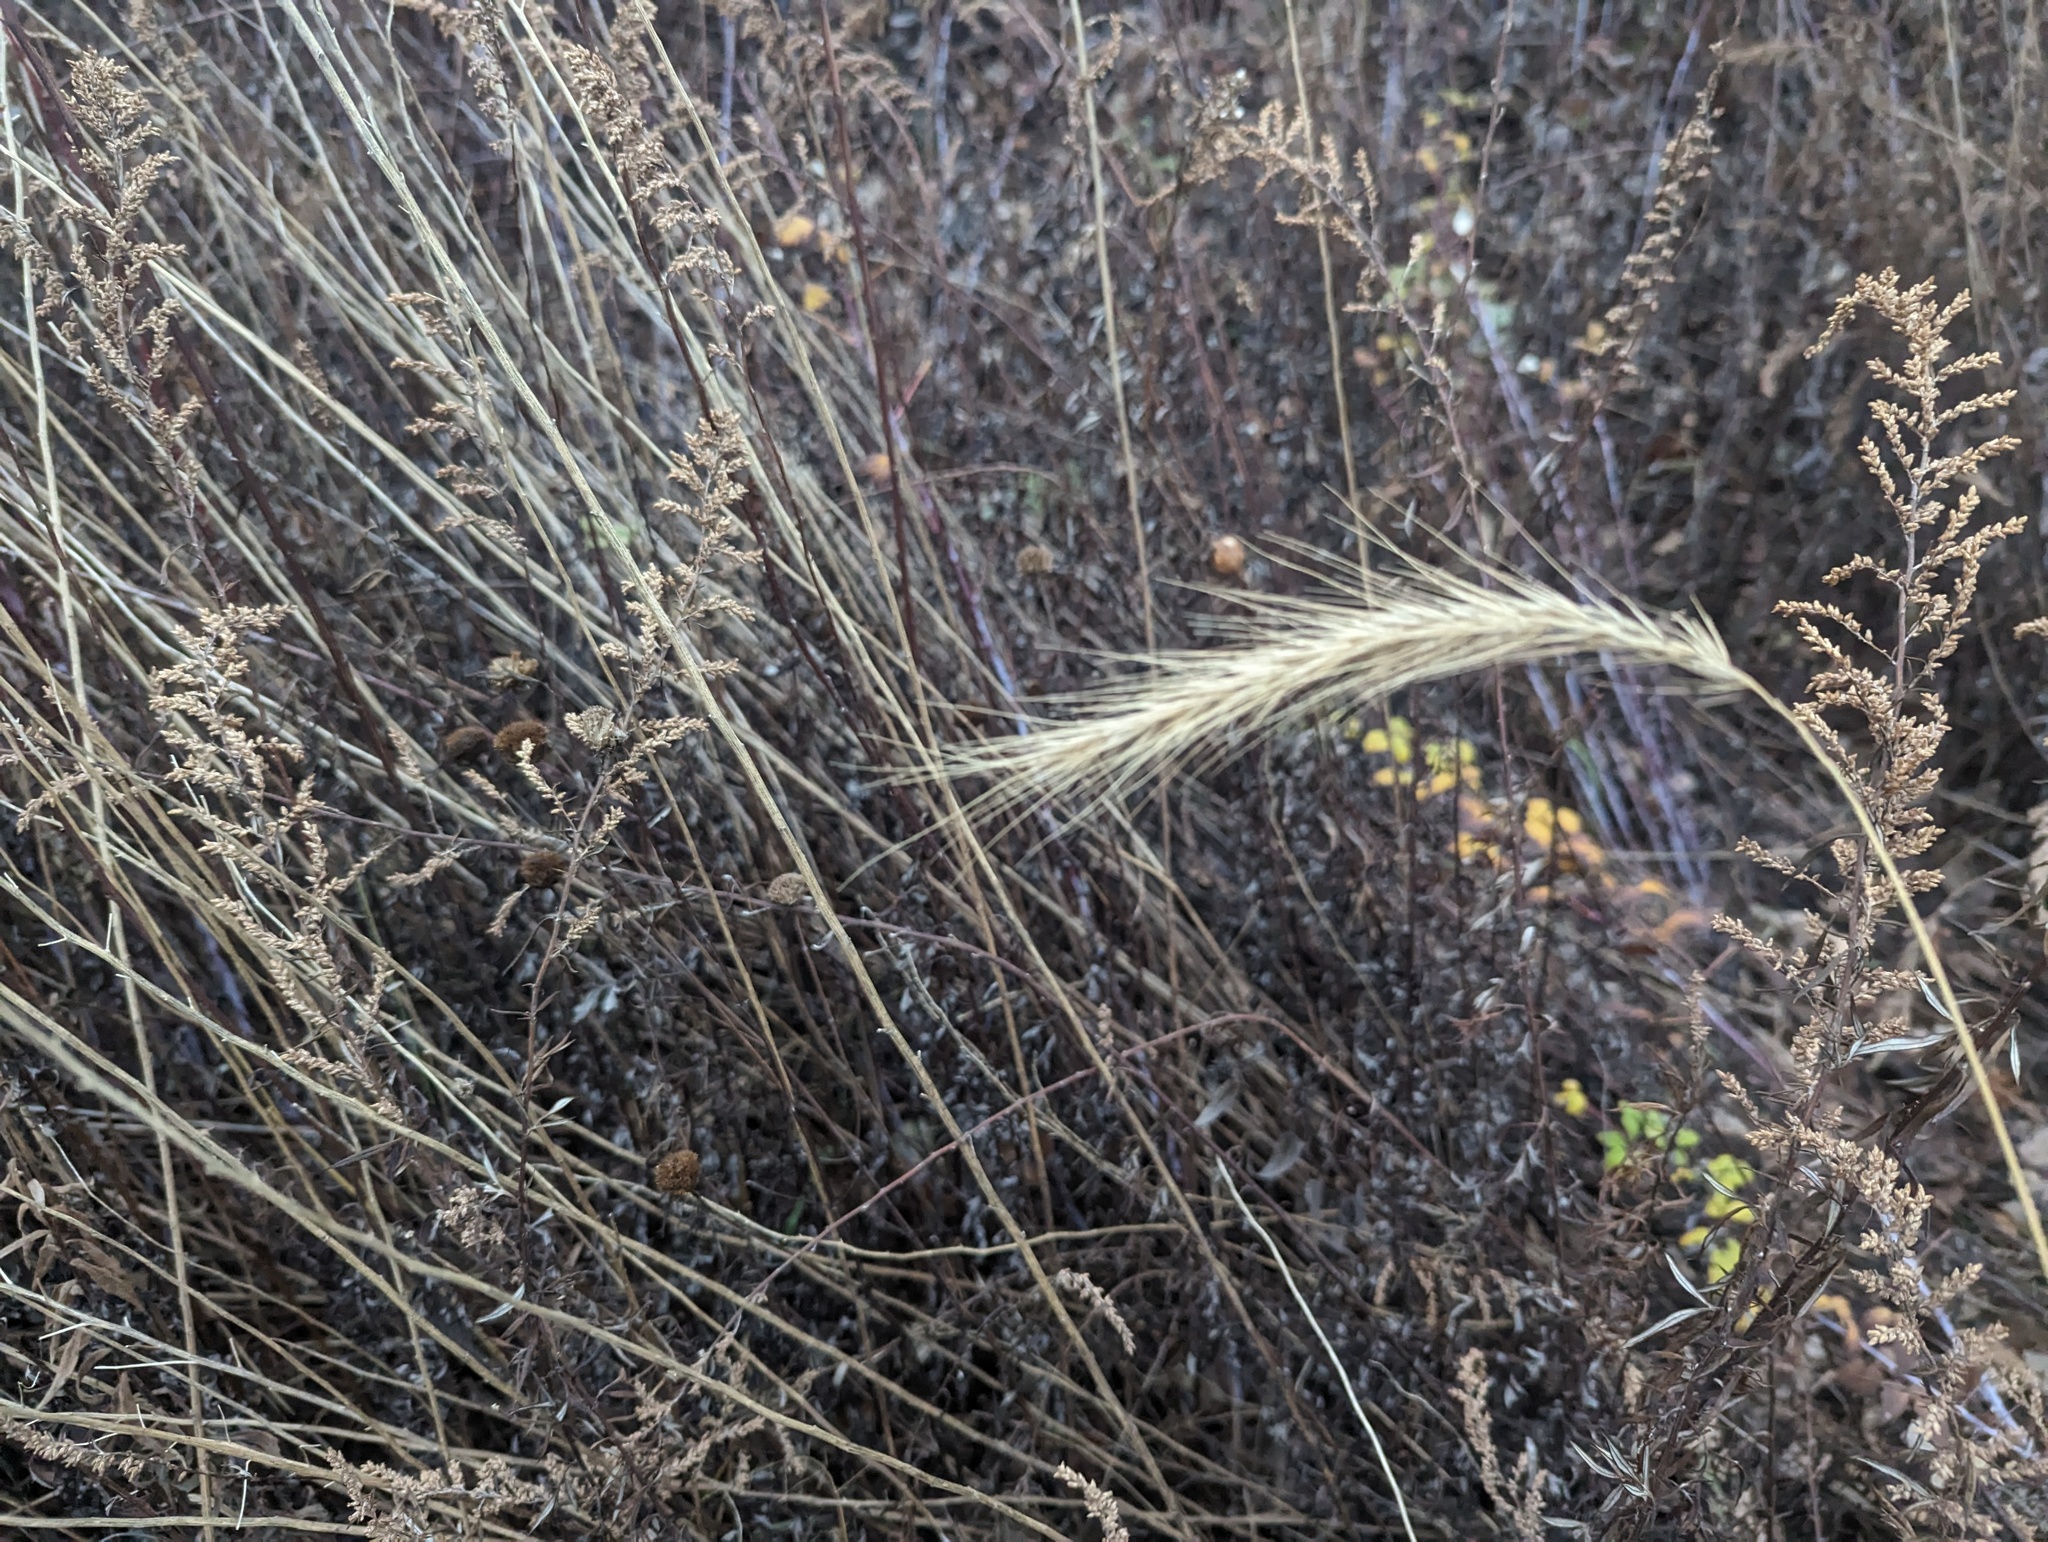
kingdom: Plantae
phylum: Tracheophyta
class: Liliopsida
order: Poales
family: Poaceae
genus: Elymus
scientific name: Elymus riparius
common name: Eastern riverbank wild rye
